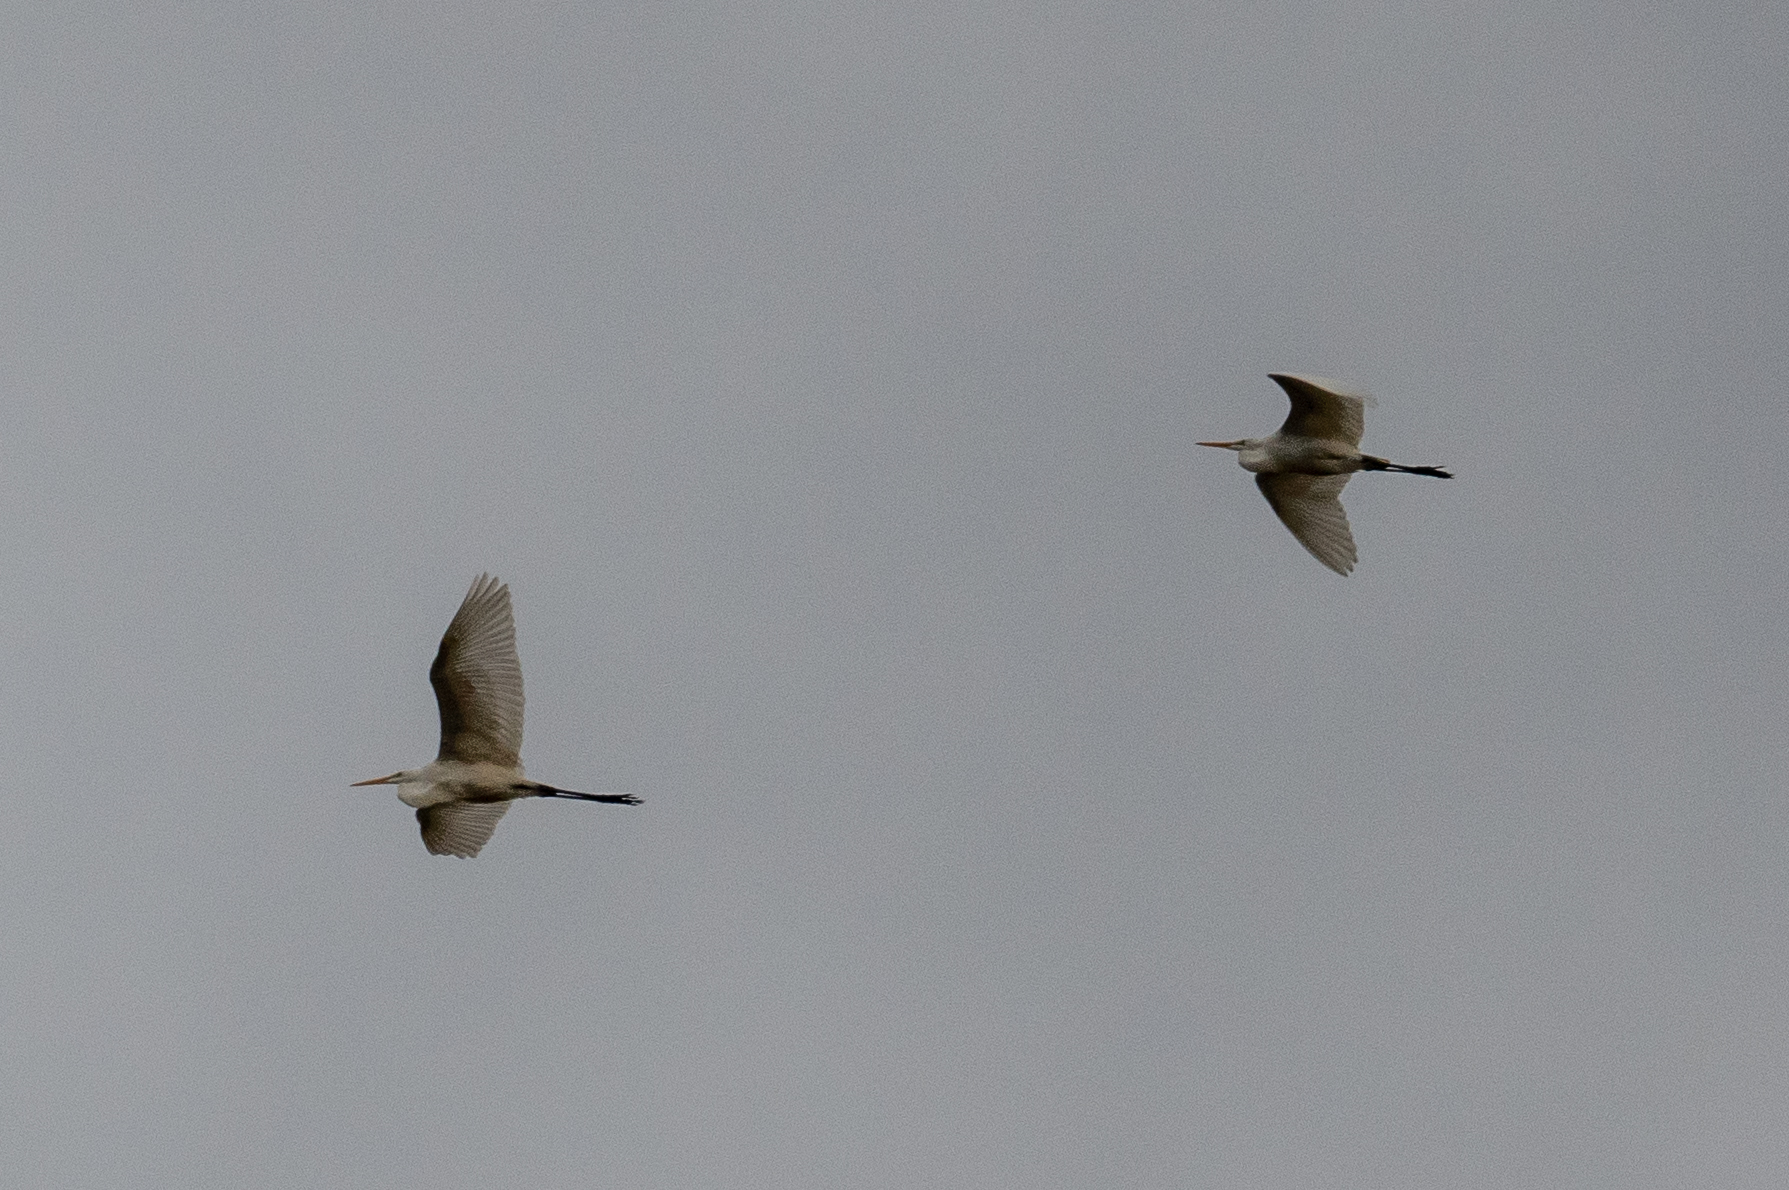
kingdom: Animalia
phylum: Chordata
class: Aves
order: Pelecaniformes
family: Ardeidae
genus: Ardea
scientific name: Ardea alba
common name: Great egret
